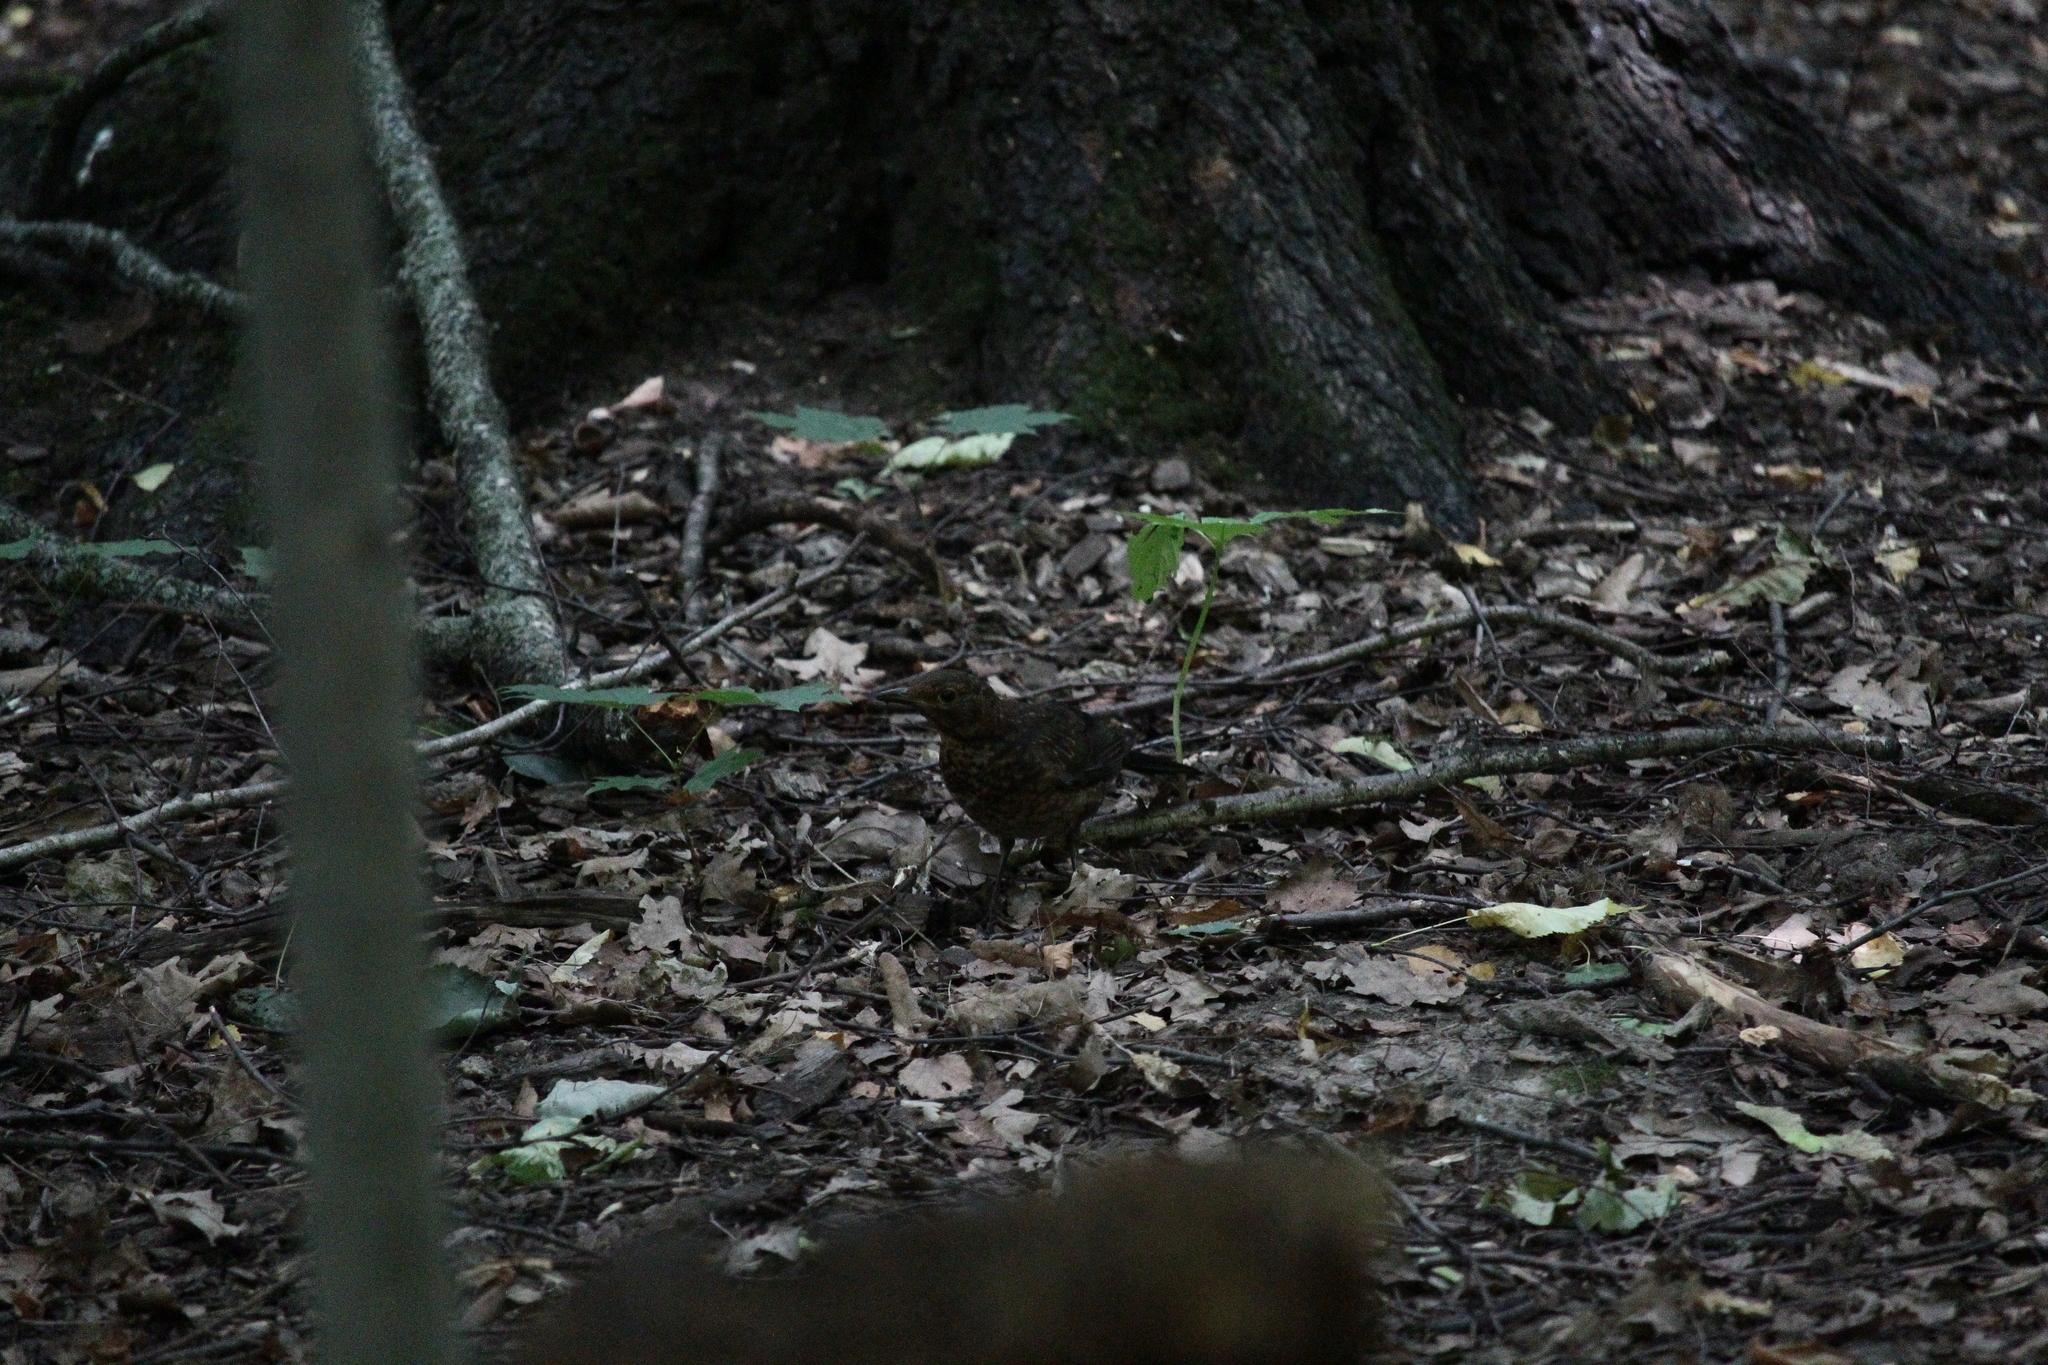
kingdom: Animalia
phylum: Chordata
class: Aves
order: Passeriformes
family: Turdidae
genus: Turdus
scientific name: Turdus merula
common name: Common blackbird
